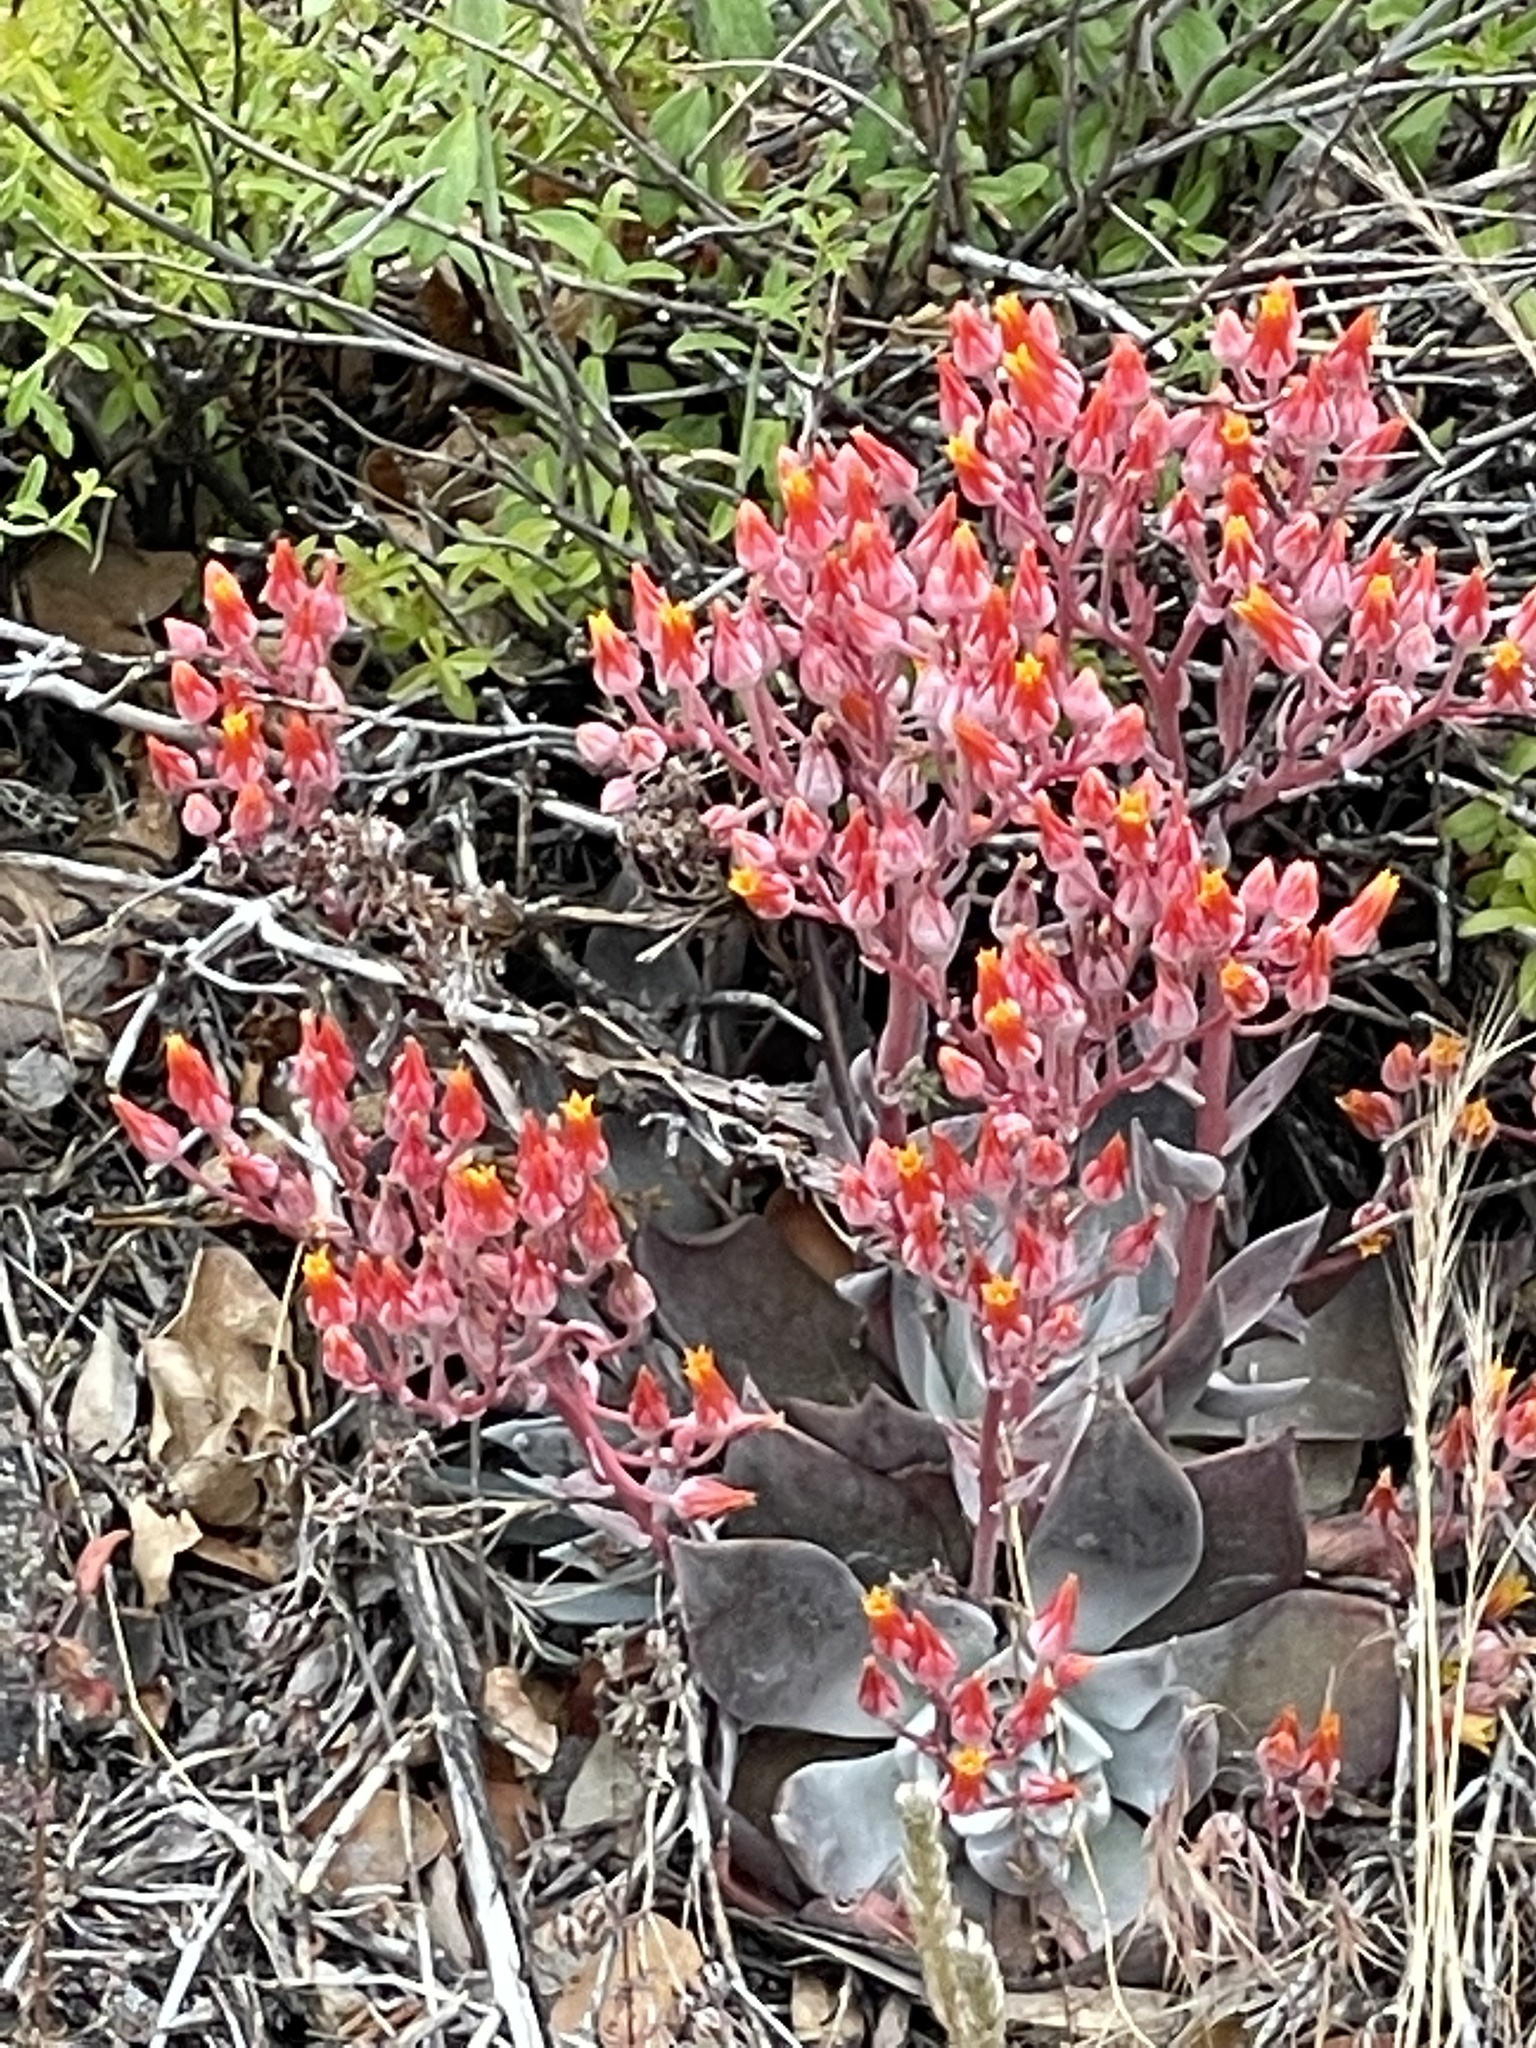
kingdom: Plantae
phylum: Tracheophyta
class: Magnoliopsida
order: Saxifragales
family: Crassulaceae
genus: Dudleya
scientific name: Dudleya cymosa
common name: Canyon dudleya
